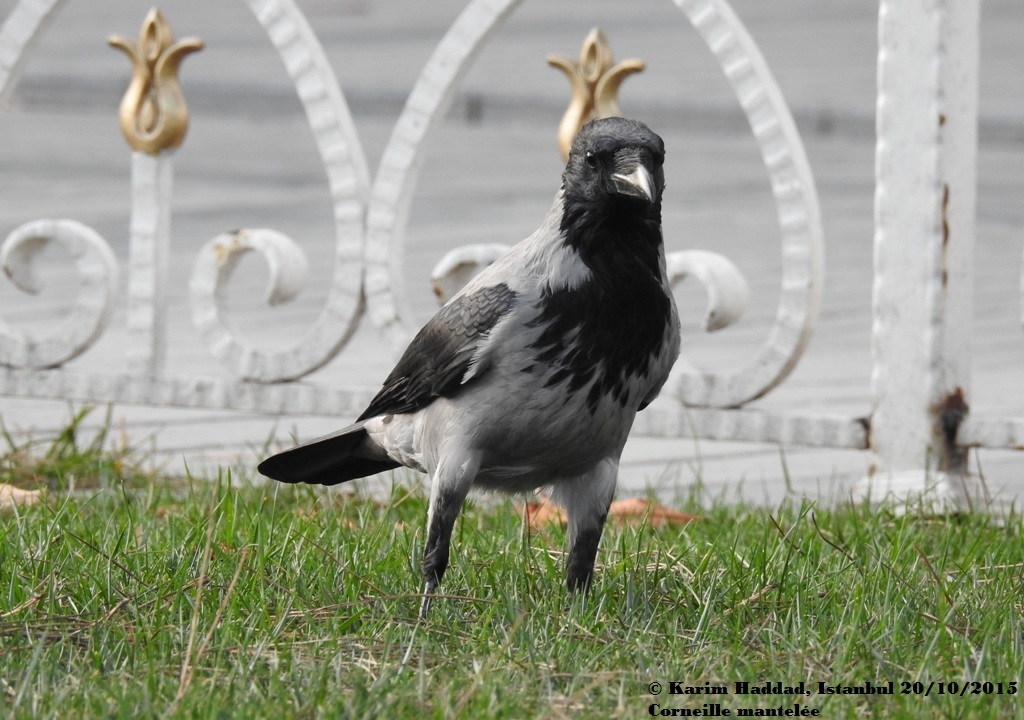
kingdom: Animalia
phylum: Chordata
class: Aves
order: Passeriformes
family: Corvidae
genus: Corvus
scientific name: Corvus cornix
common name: Hooded crow
